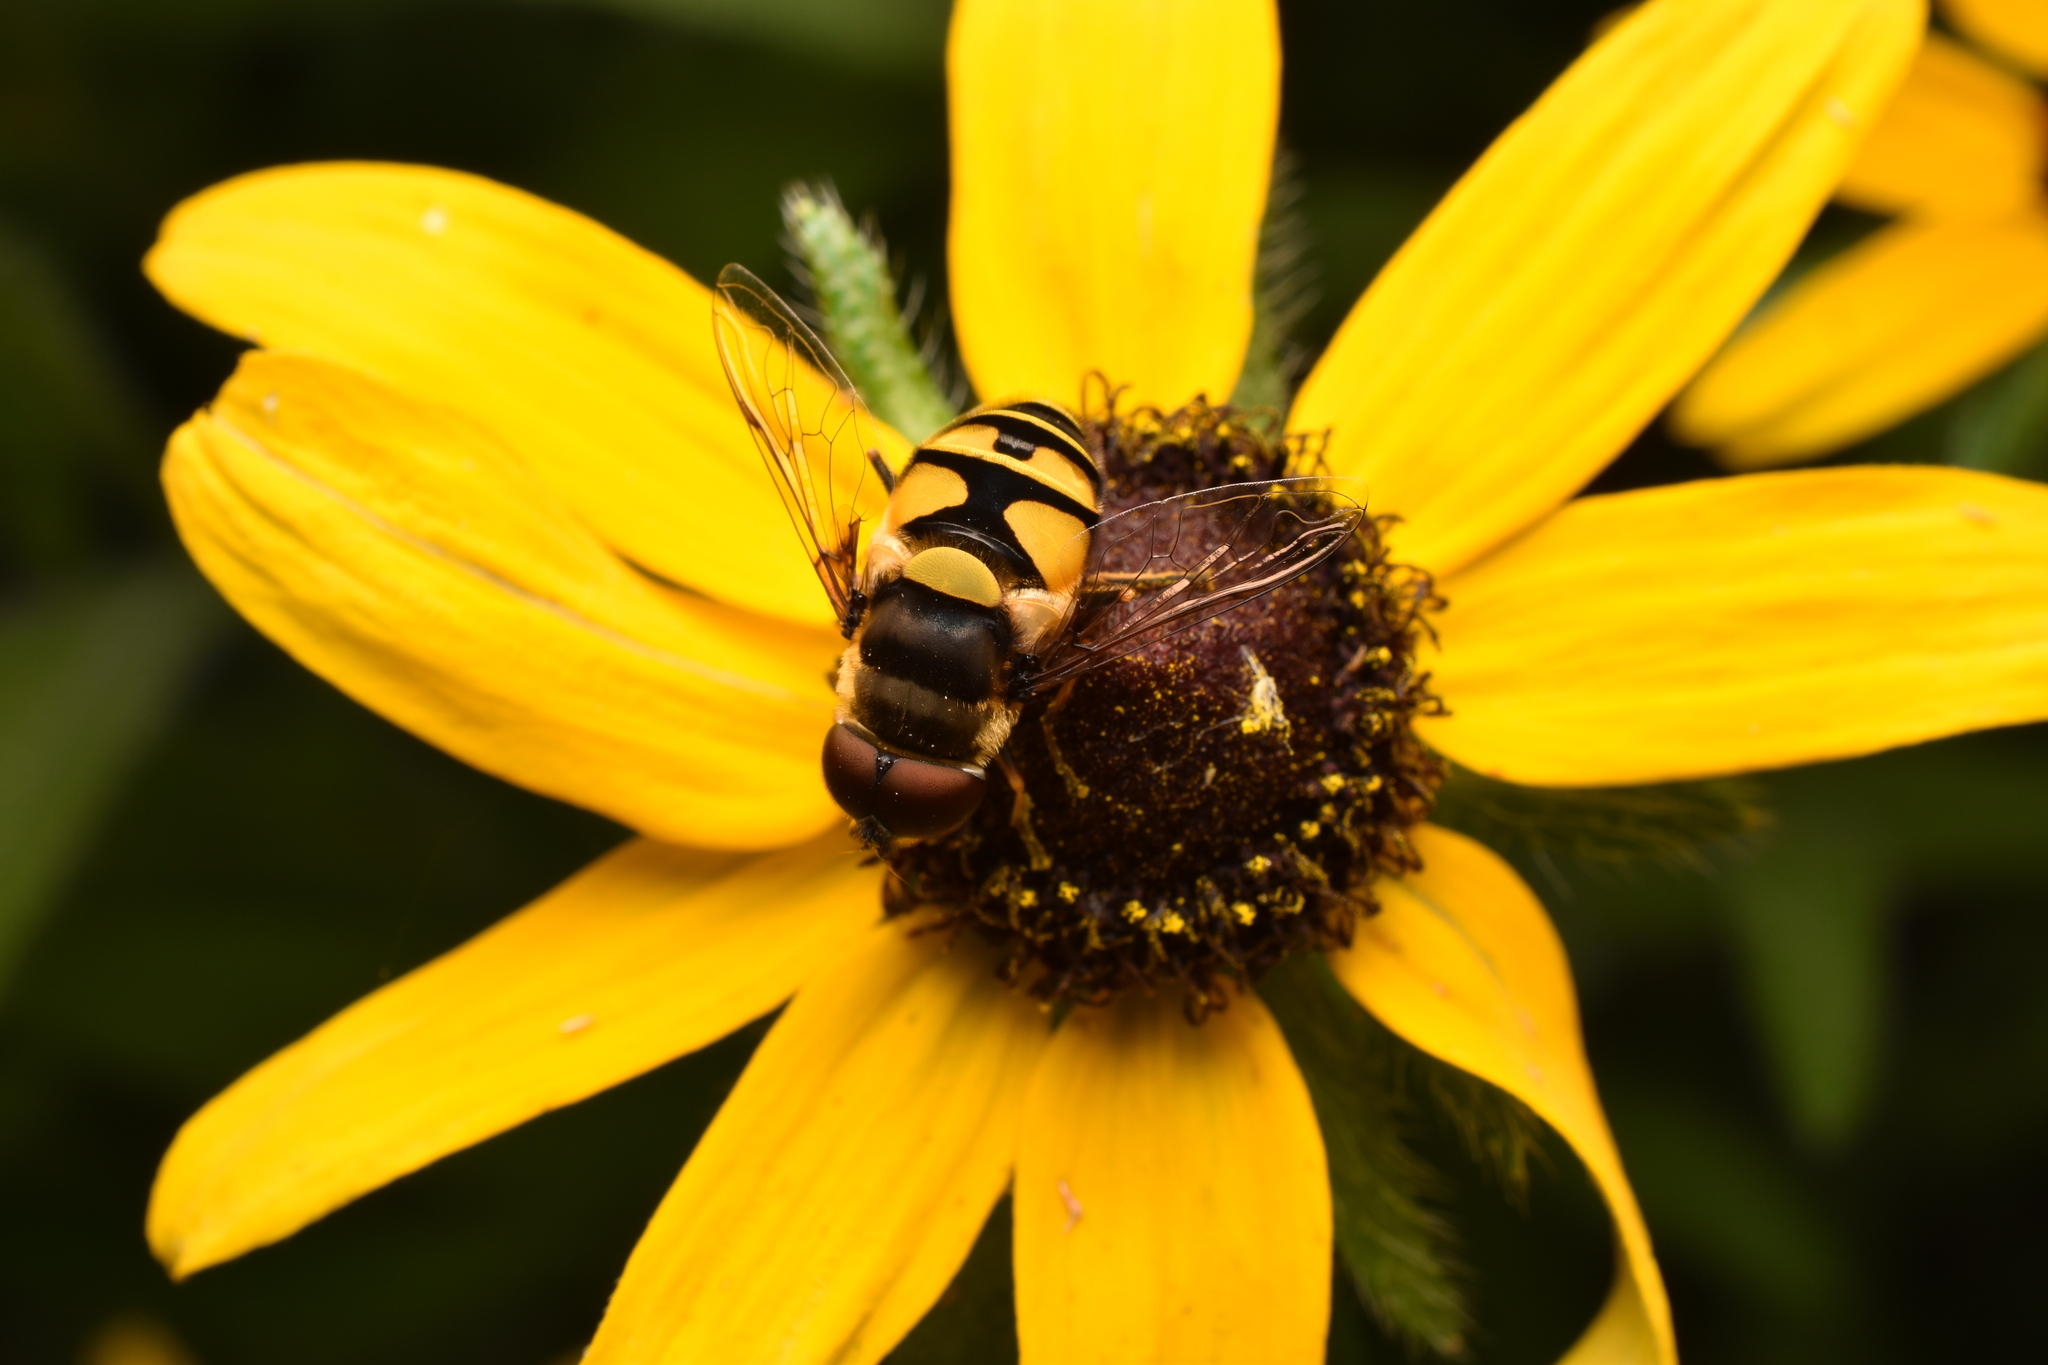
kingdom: Animalia
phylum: Arthropoda
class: Insecta
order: Diptera
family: Syrphidae
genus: Eristalis
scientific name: Eristalis transversa
